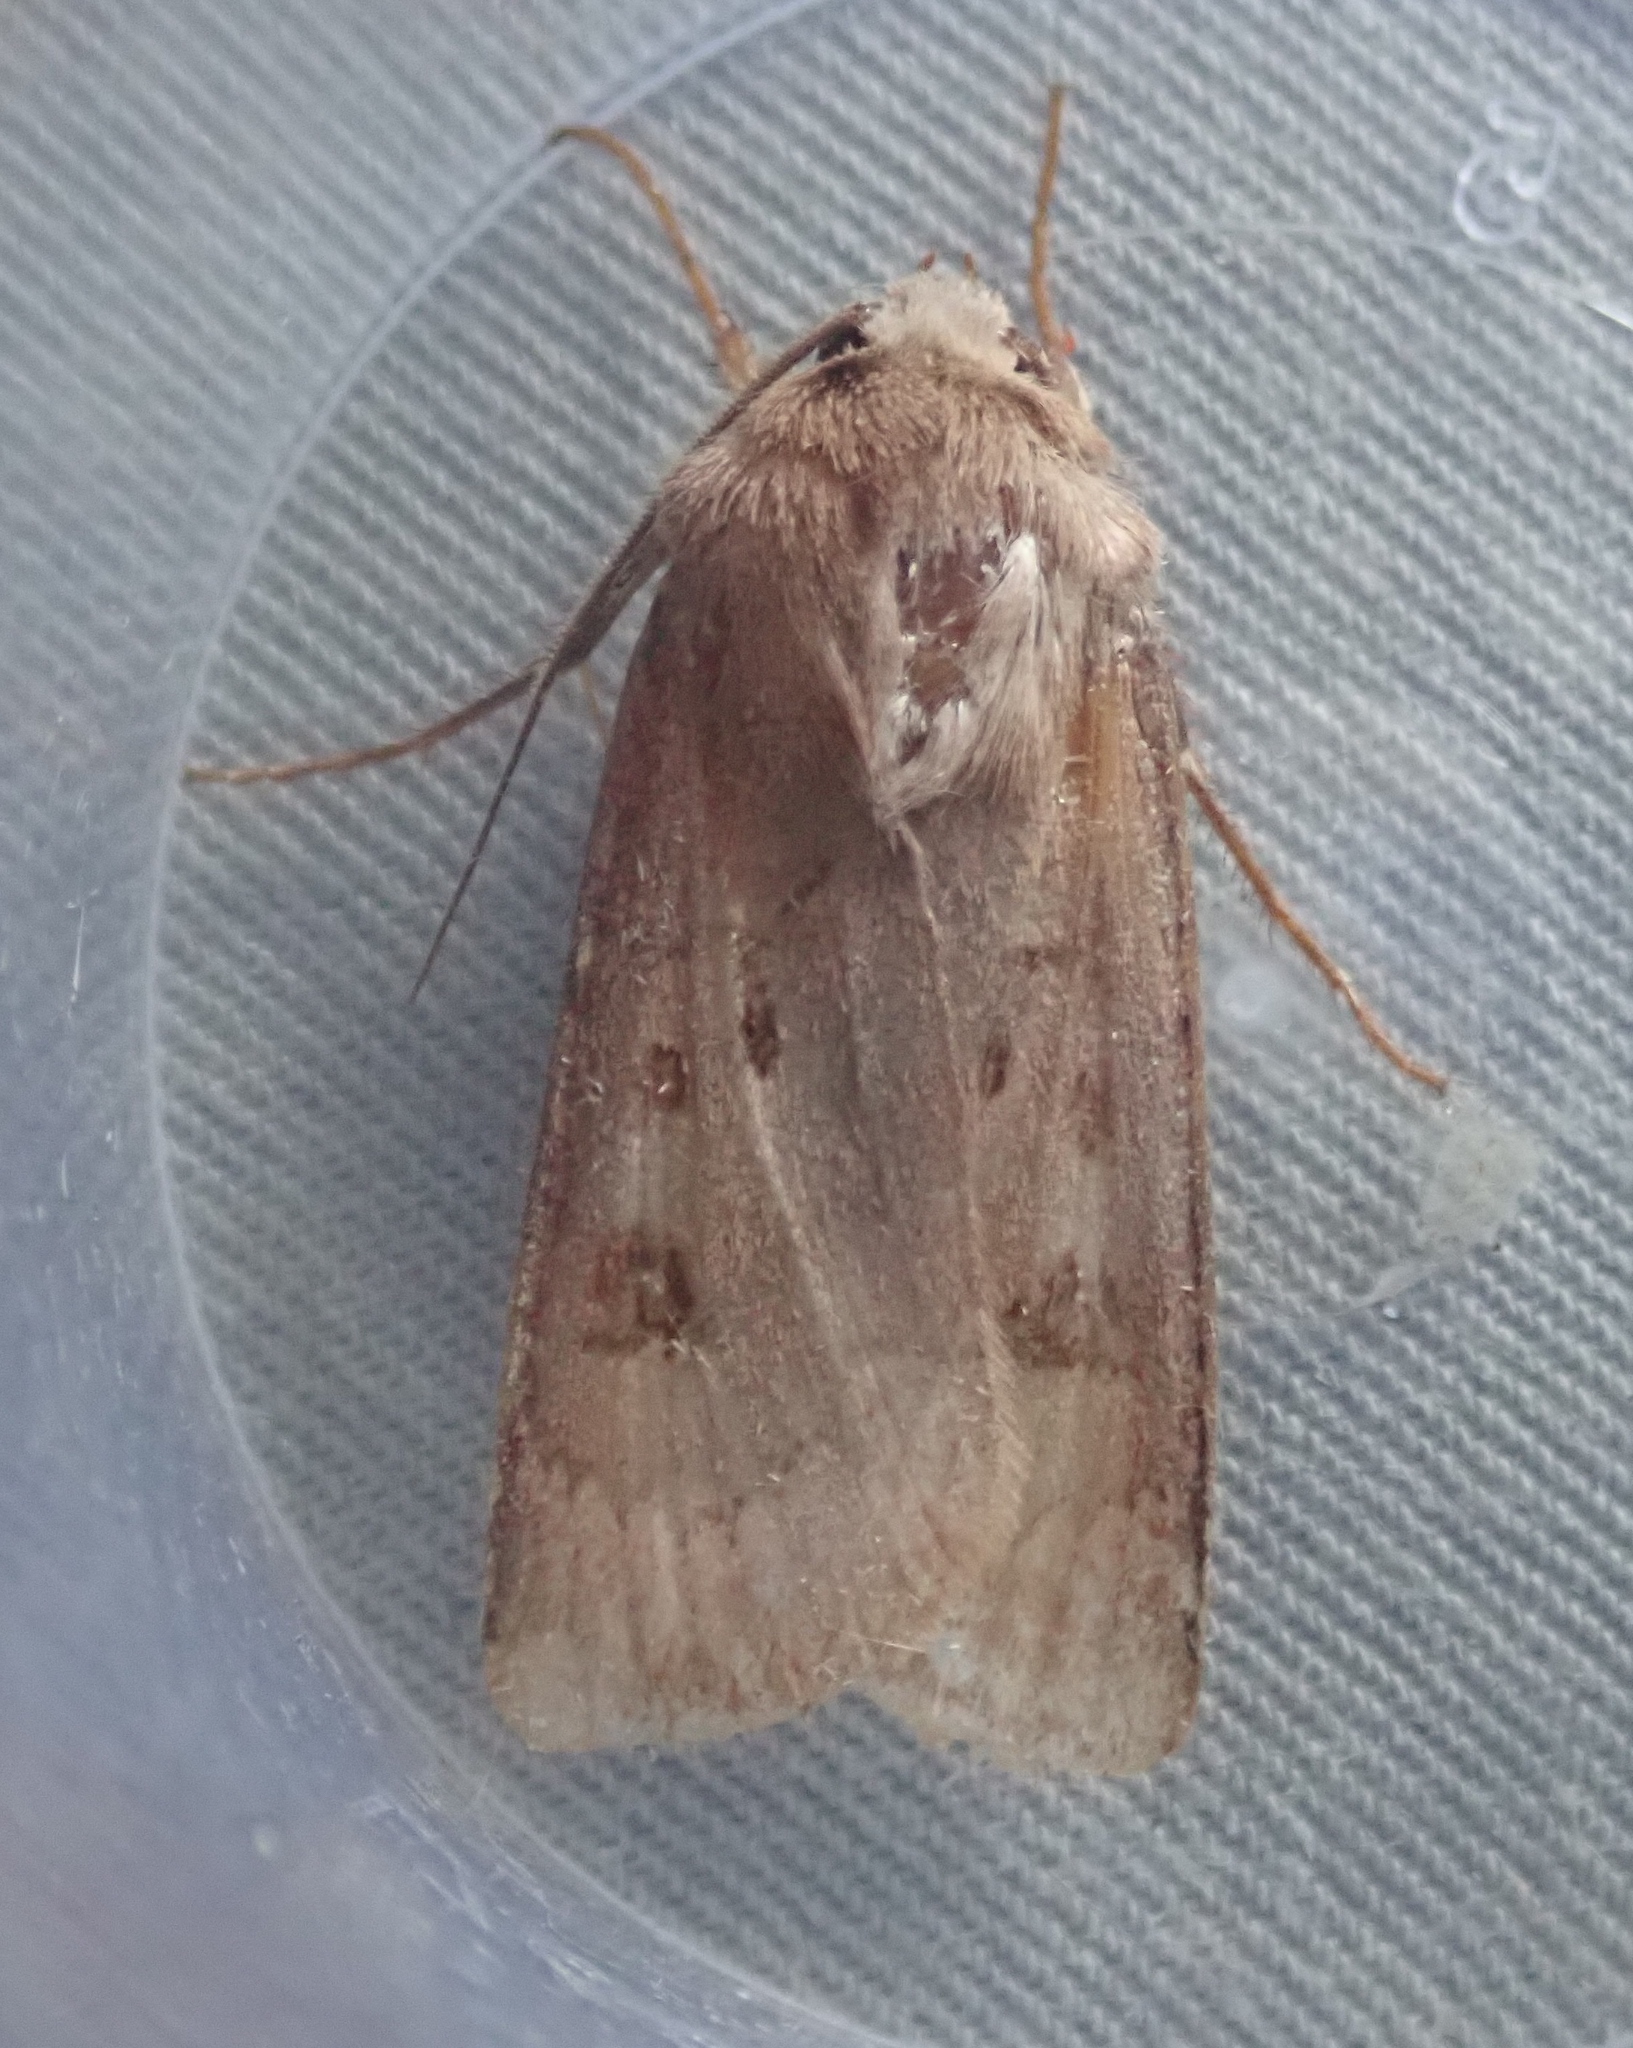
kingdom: Animalia
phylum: Arthropoda
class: Insecta
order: Lepidoptera
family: Noctuidae
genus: Agrotis
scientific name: Agrotis exclamationis
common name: Heart and dart
